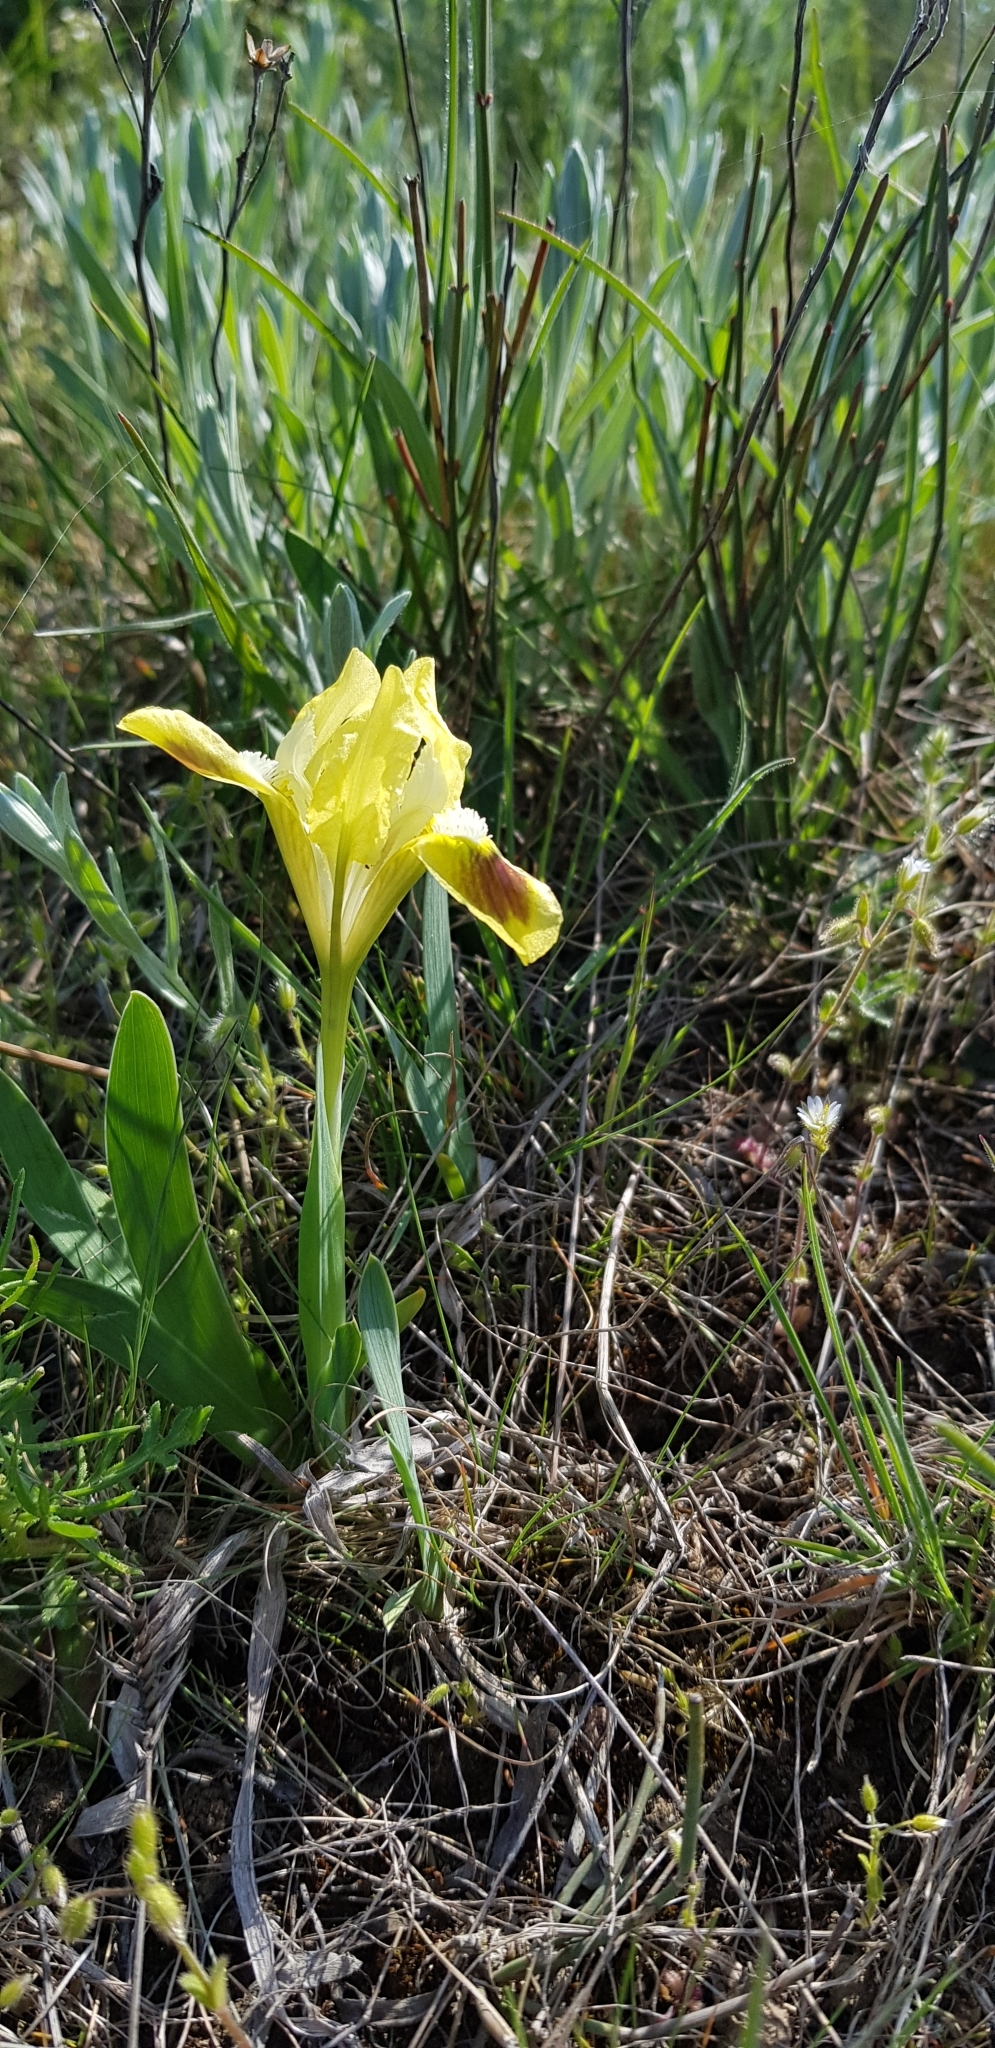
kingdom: Plantae
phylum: Tracheophyta
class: Liliopsida
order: Asparagales
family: Iridaceae
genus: Iris
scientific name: Iris pumila
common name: Dwarf iris
